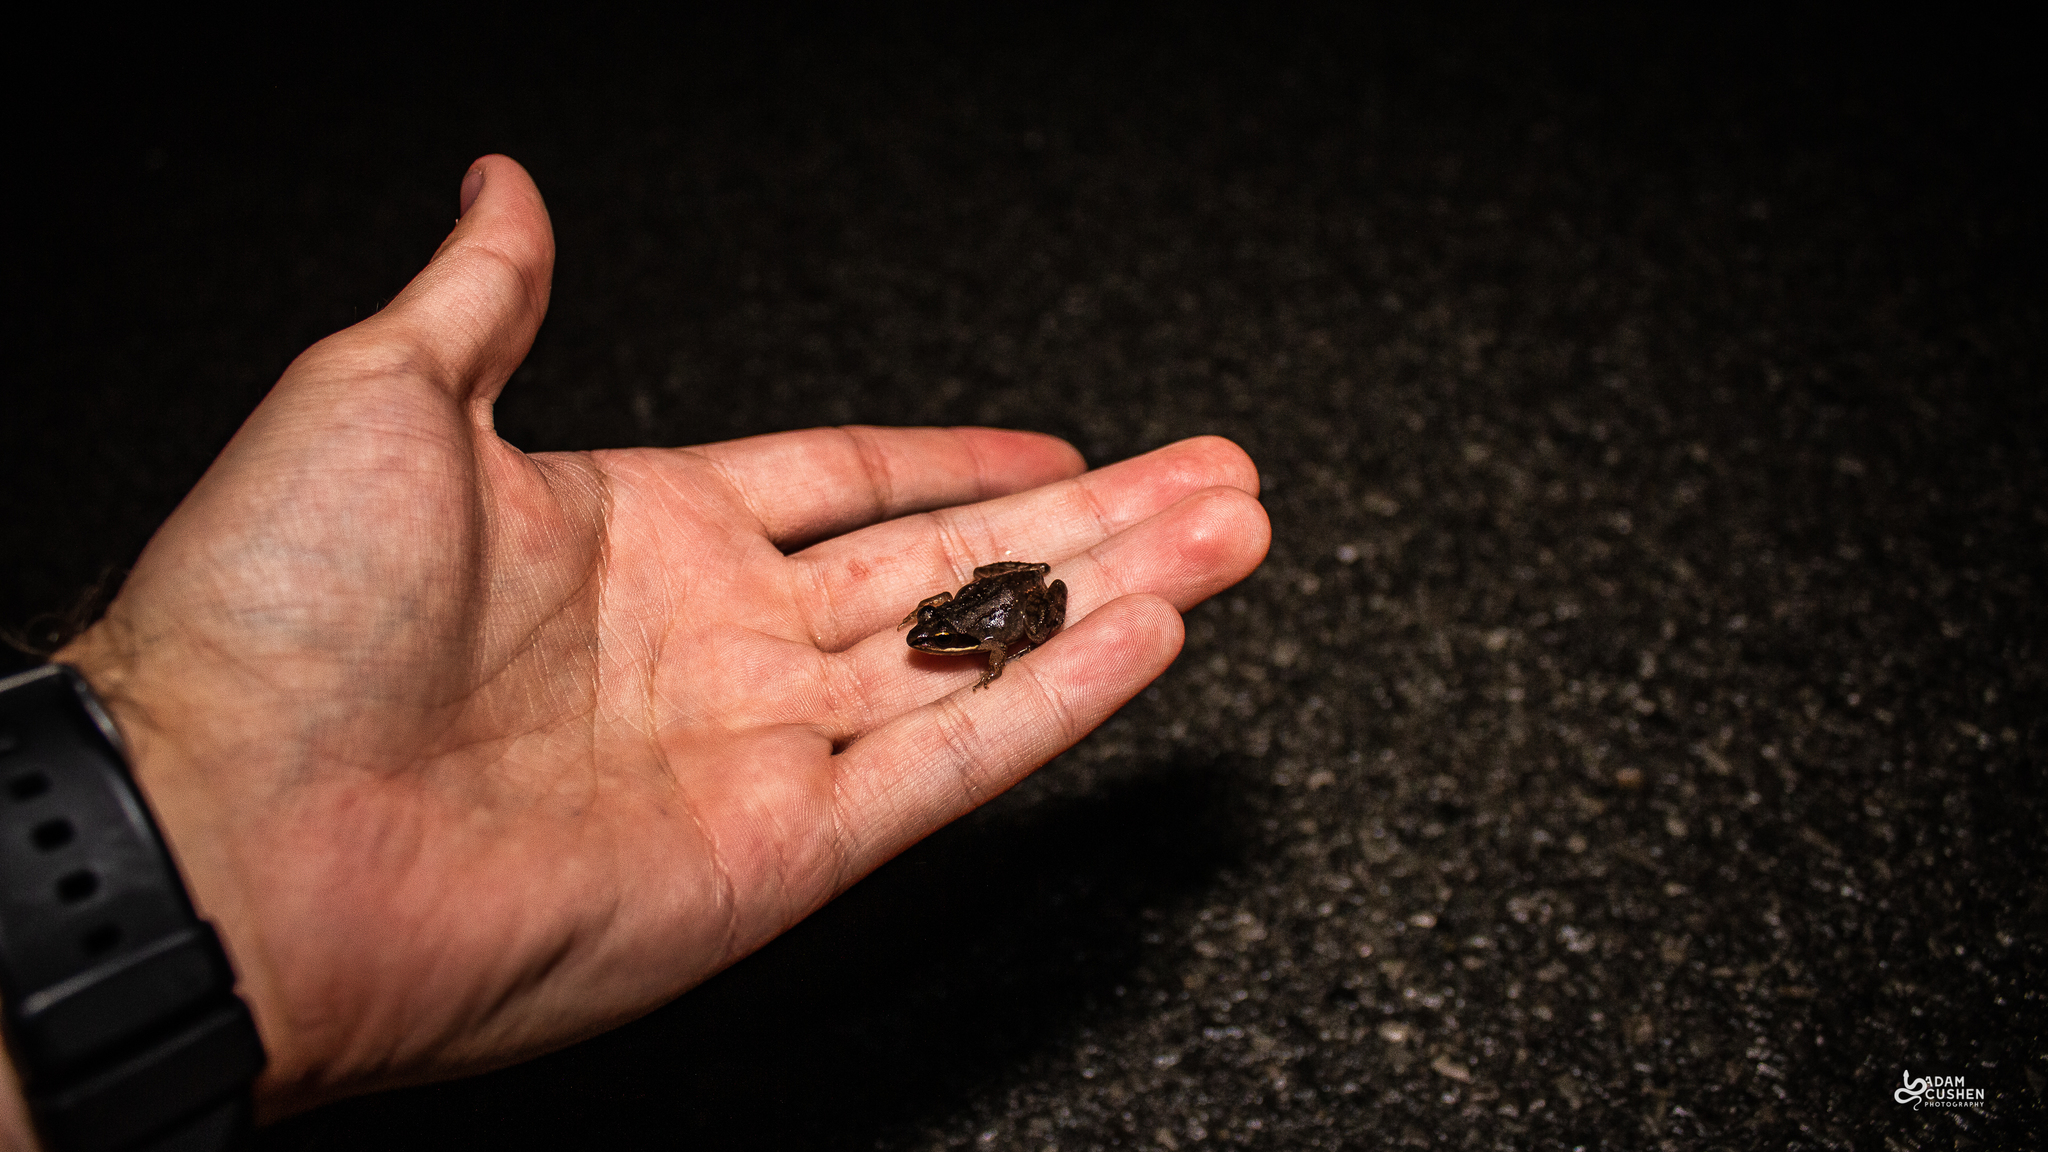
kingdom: Animalia
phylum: Chordata
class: Amphibia
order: Anura
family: Ranidae
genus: Lithobates
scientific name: Lithobates sylvaticus
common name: Wood frog
